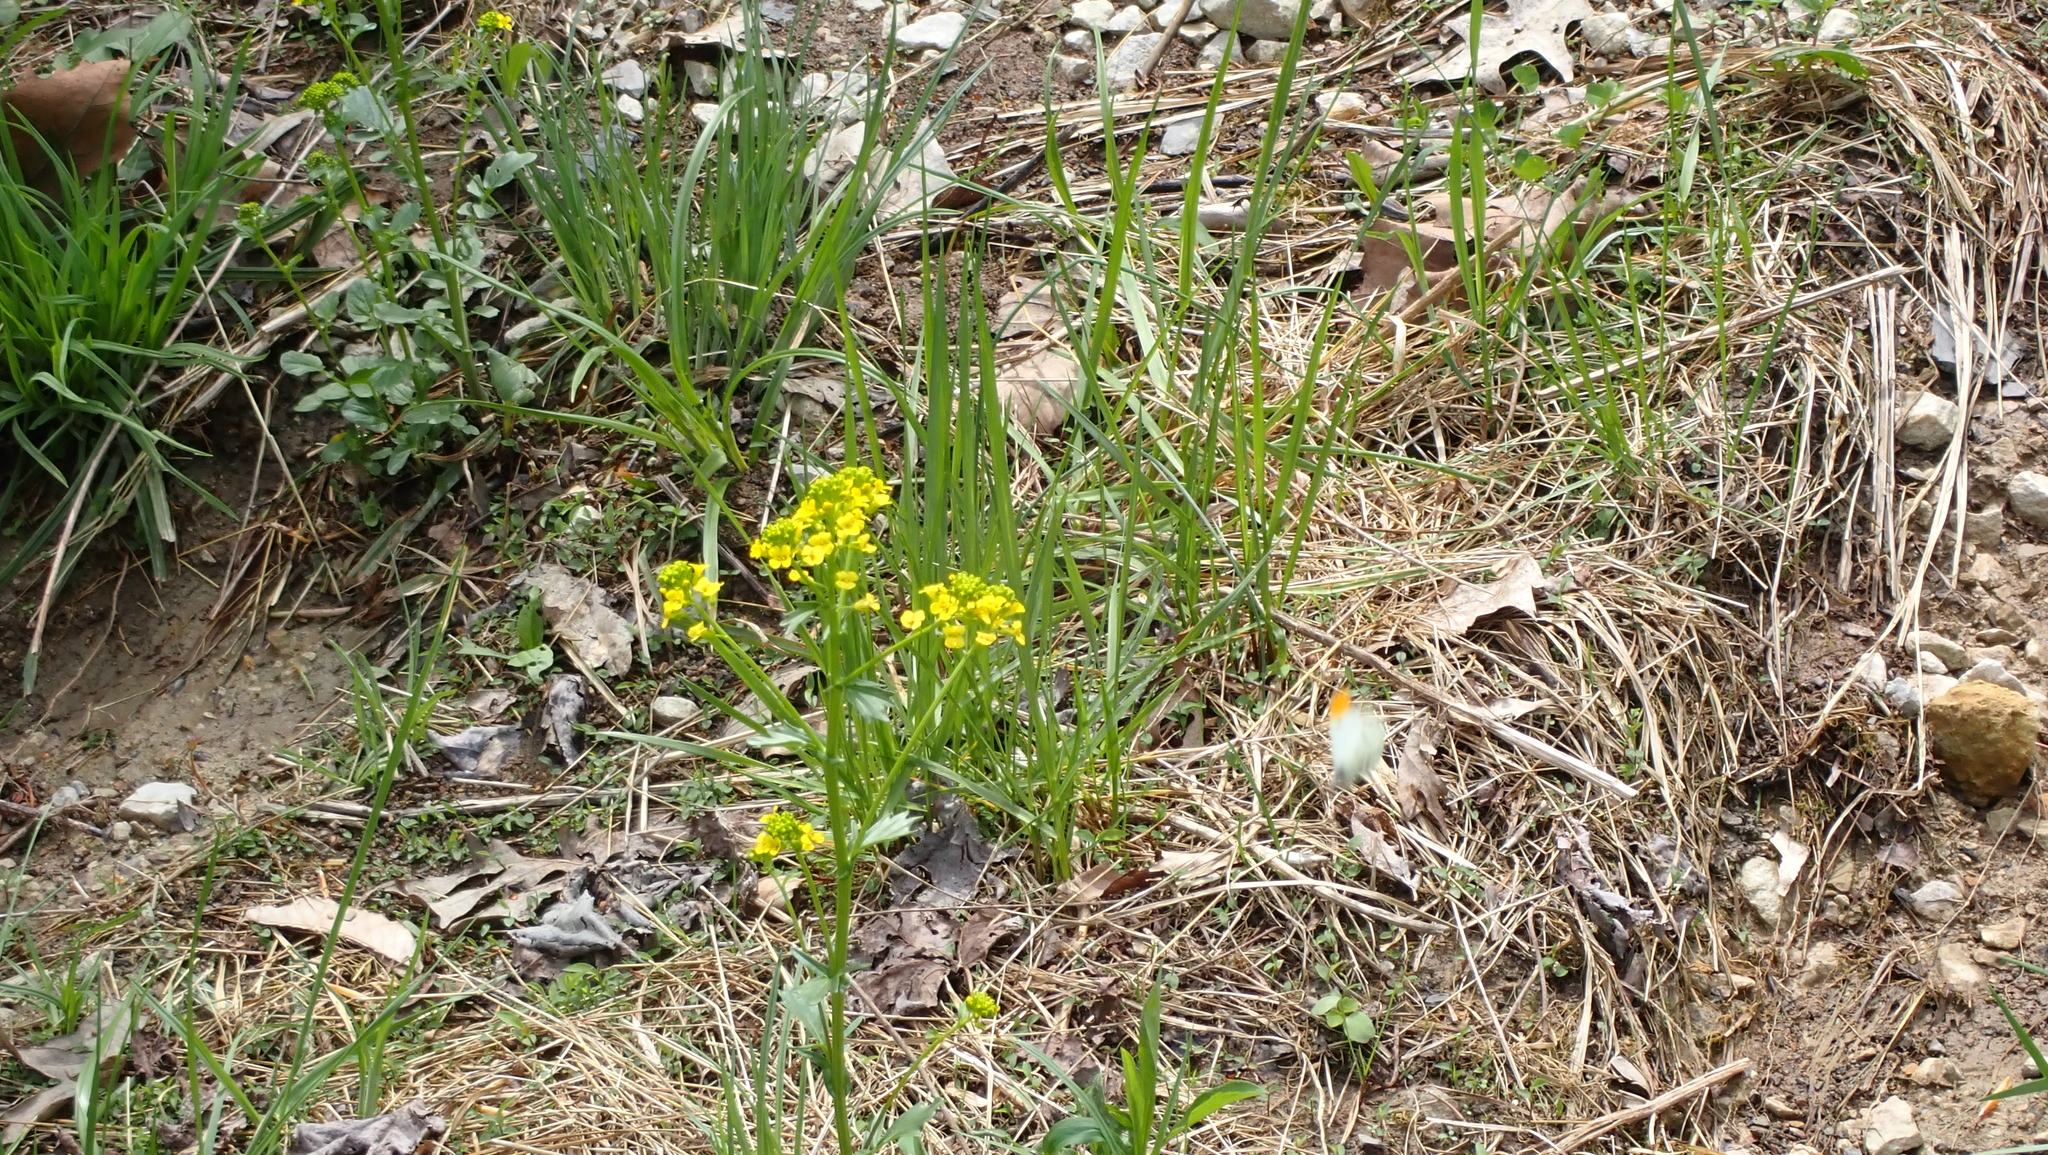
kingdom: Animalia
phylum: Arthropoda
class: Insecta
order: Lepidoptera
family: Pieridae
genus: Anthocharis
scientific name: Anthocharis midea
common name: Falcate orangetip
